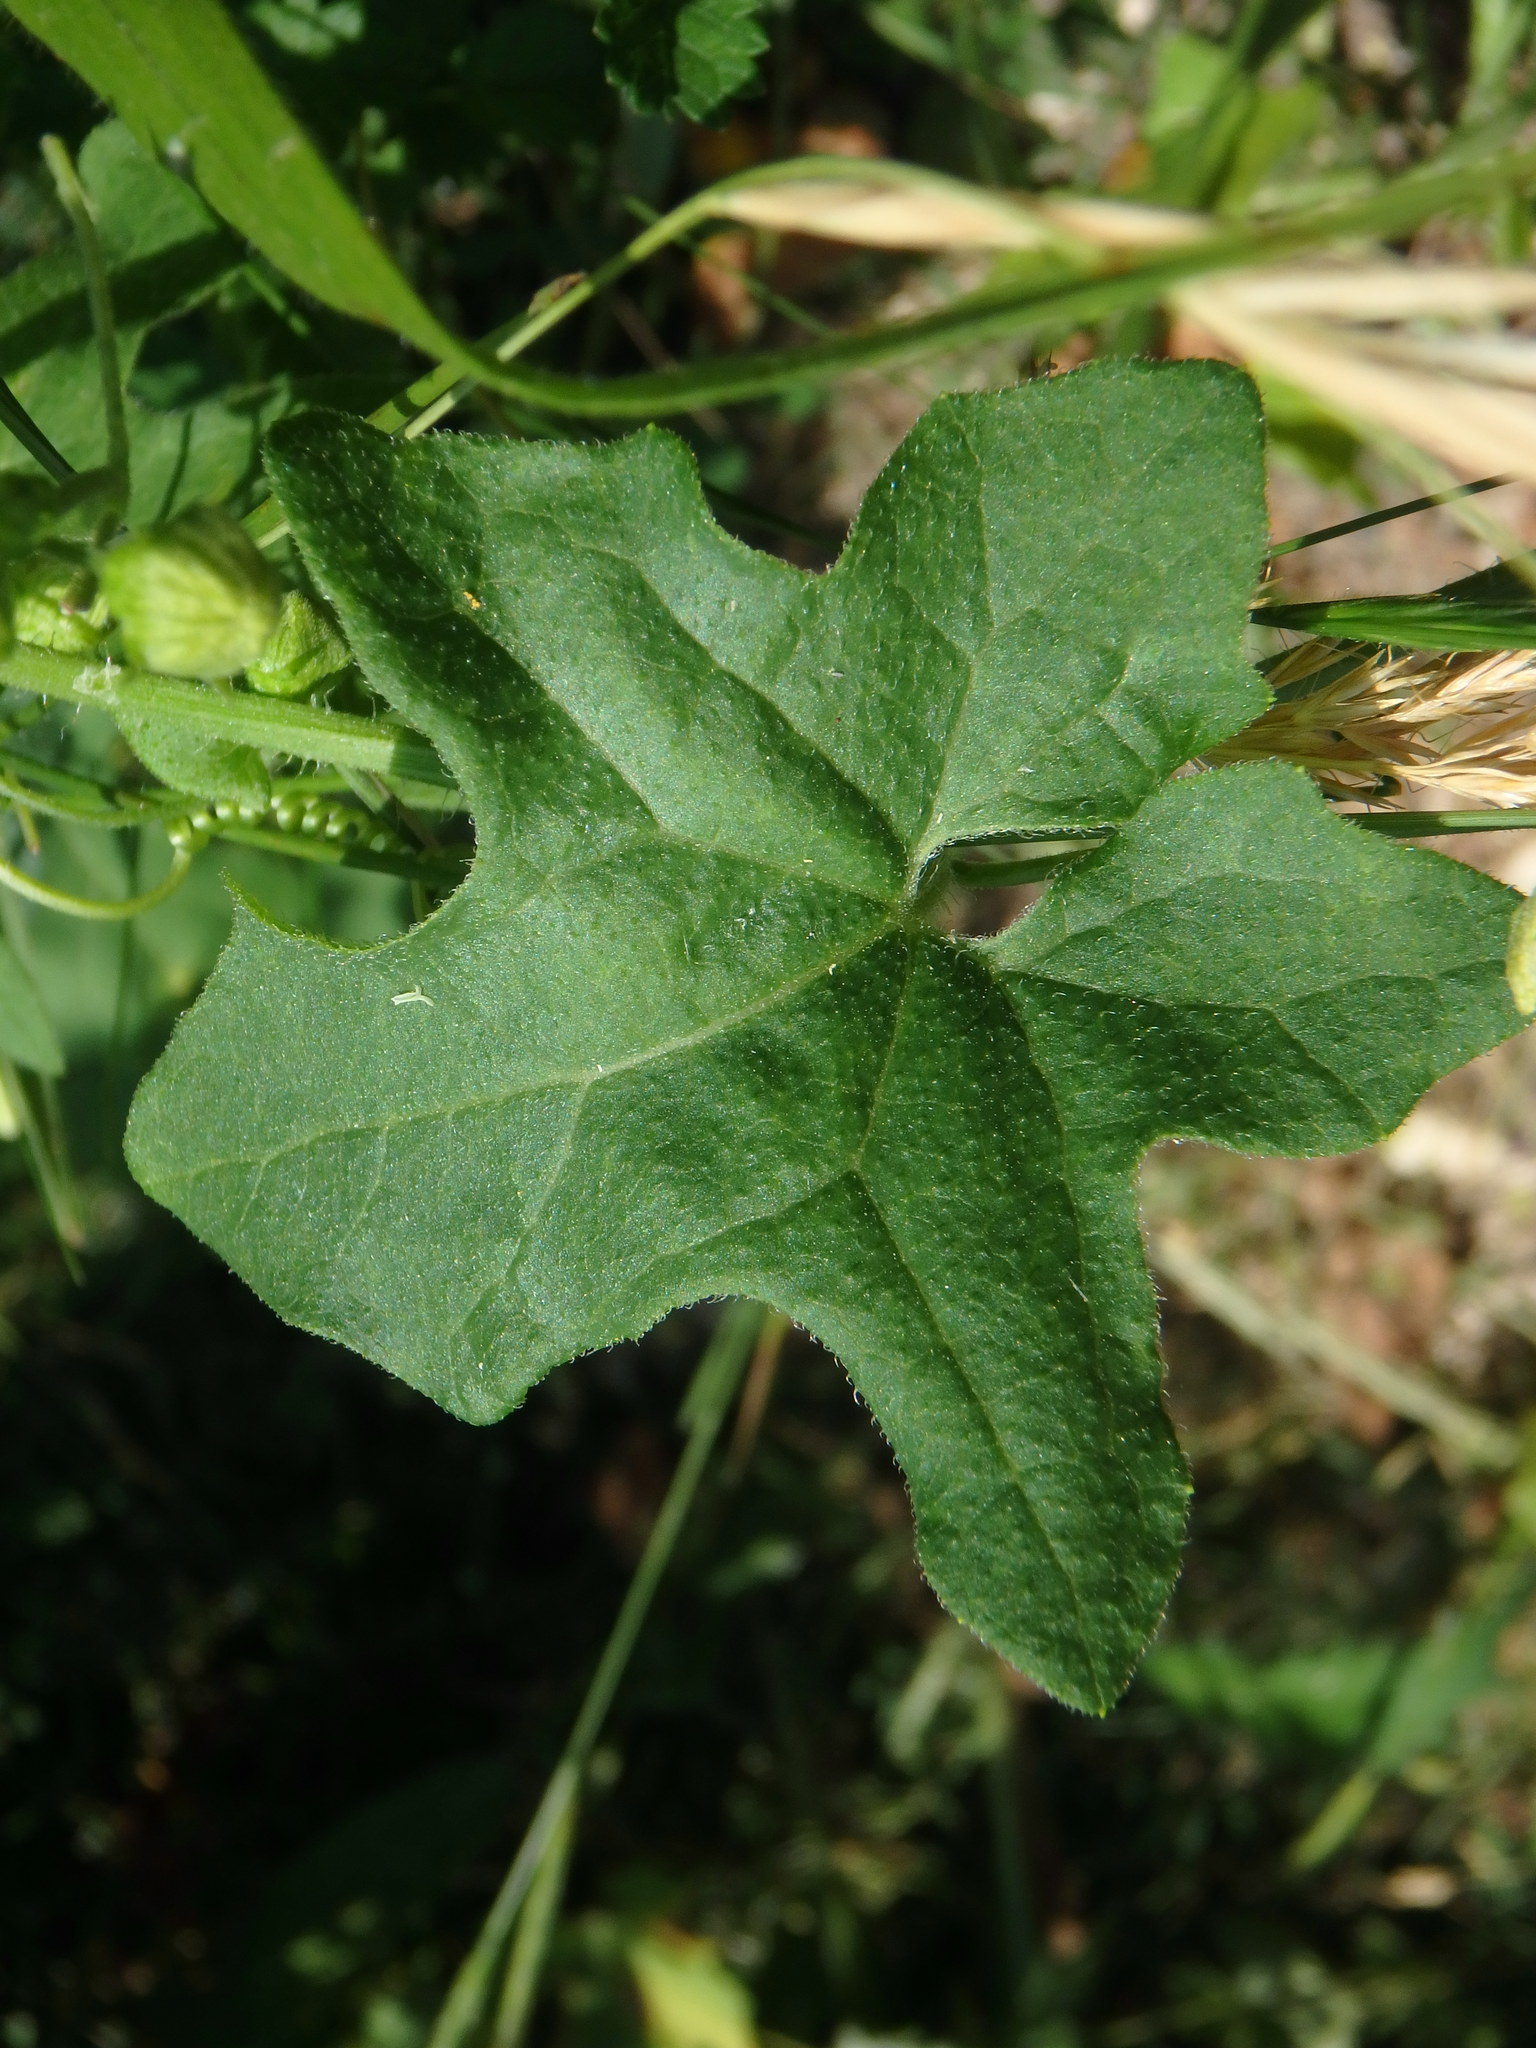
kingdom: Plantae
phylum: Tracheophyta
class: Magnoliopsida
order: Cucurbitales
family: Cucurbitaceae
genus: Bryonia
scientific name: Bryonia cretica
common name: Cretan bryony
